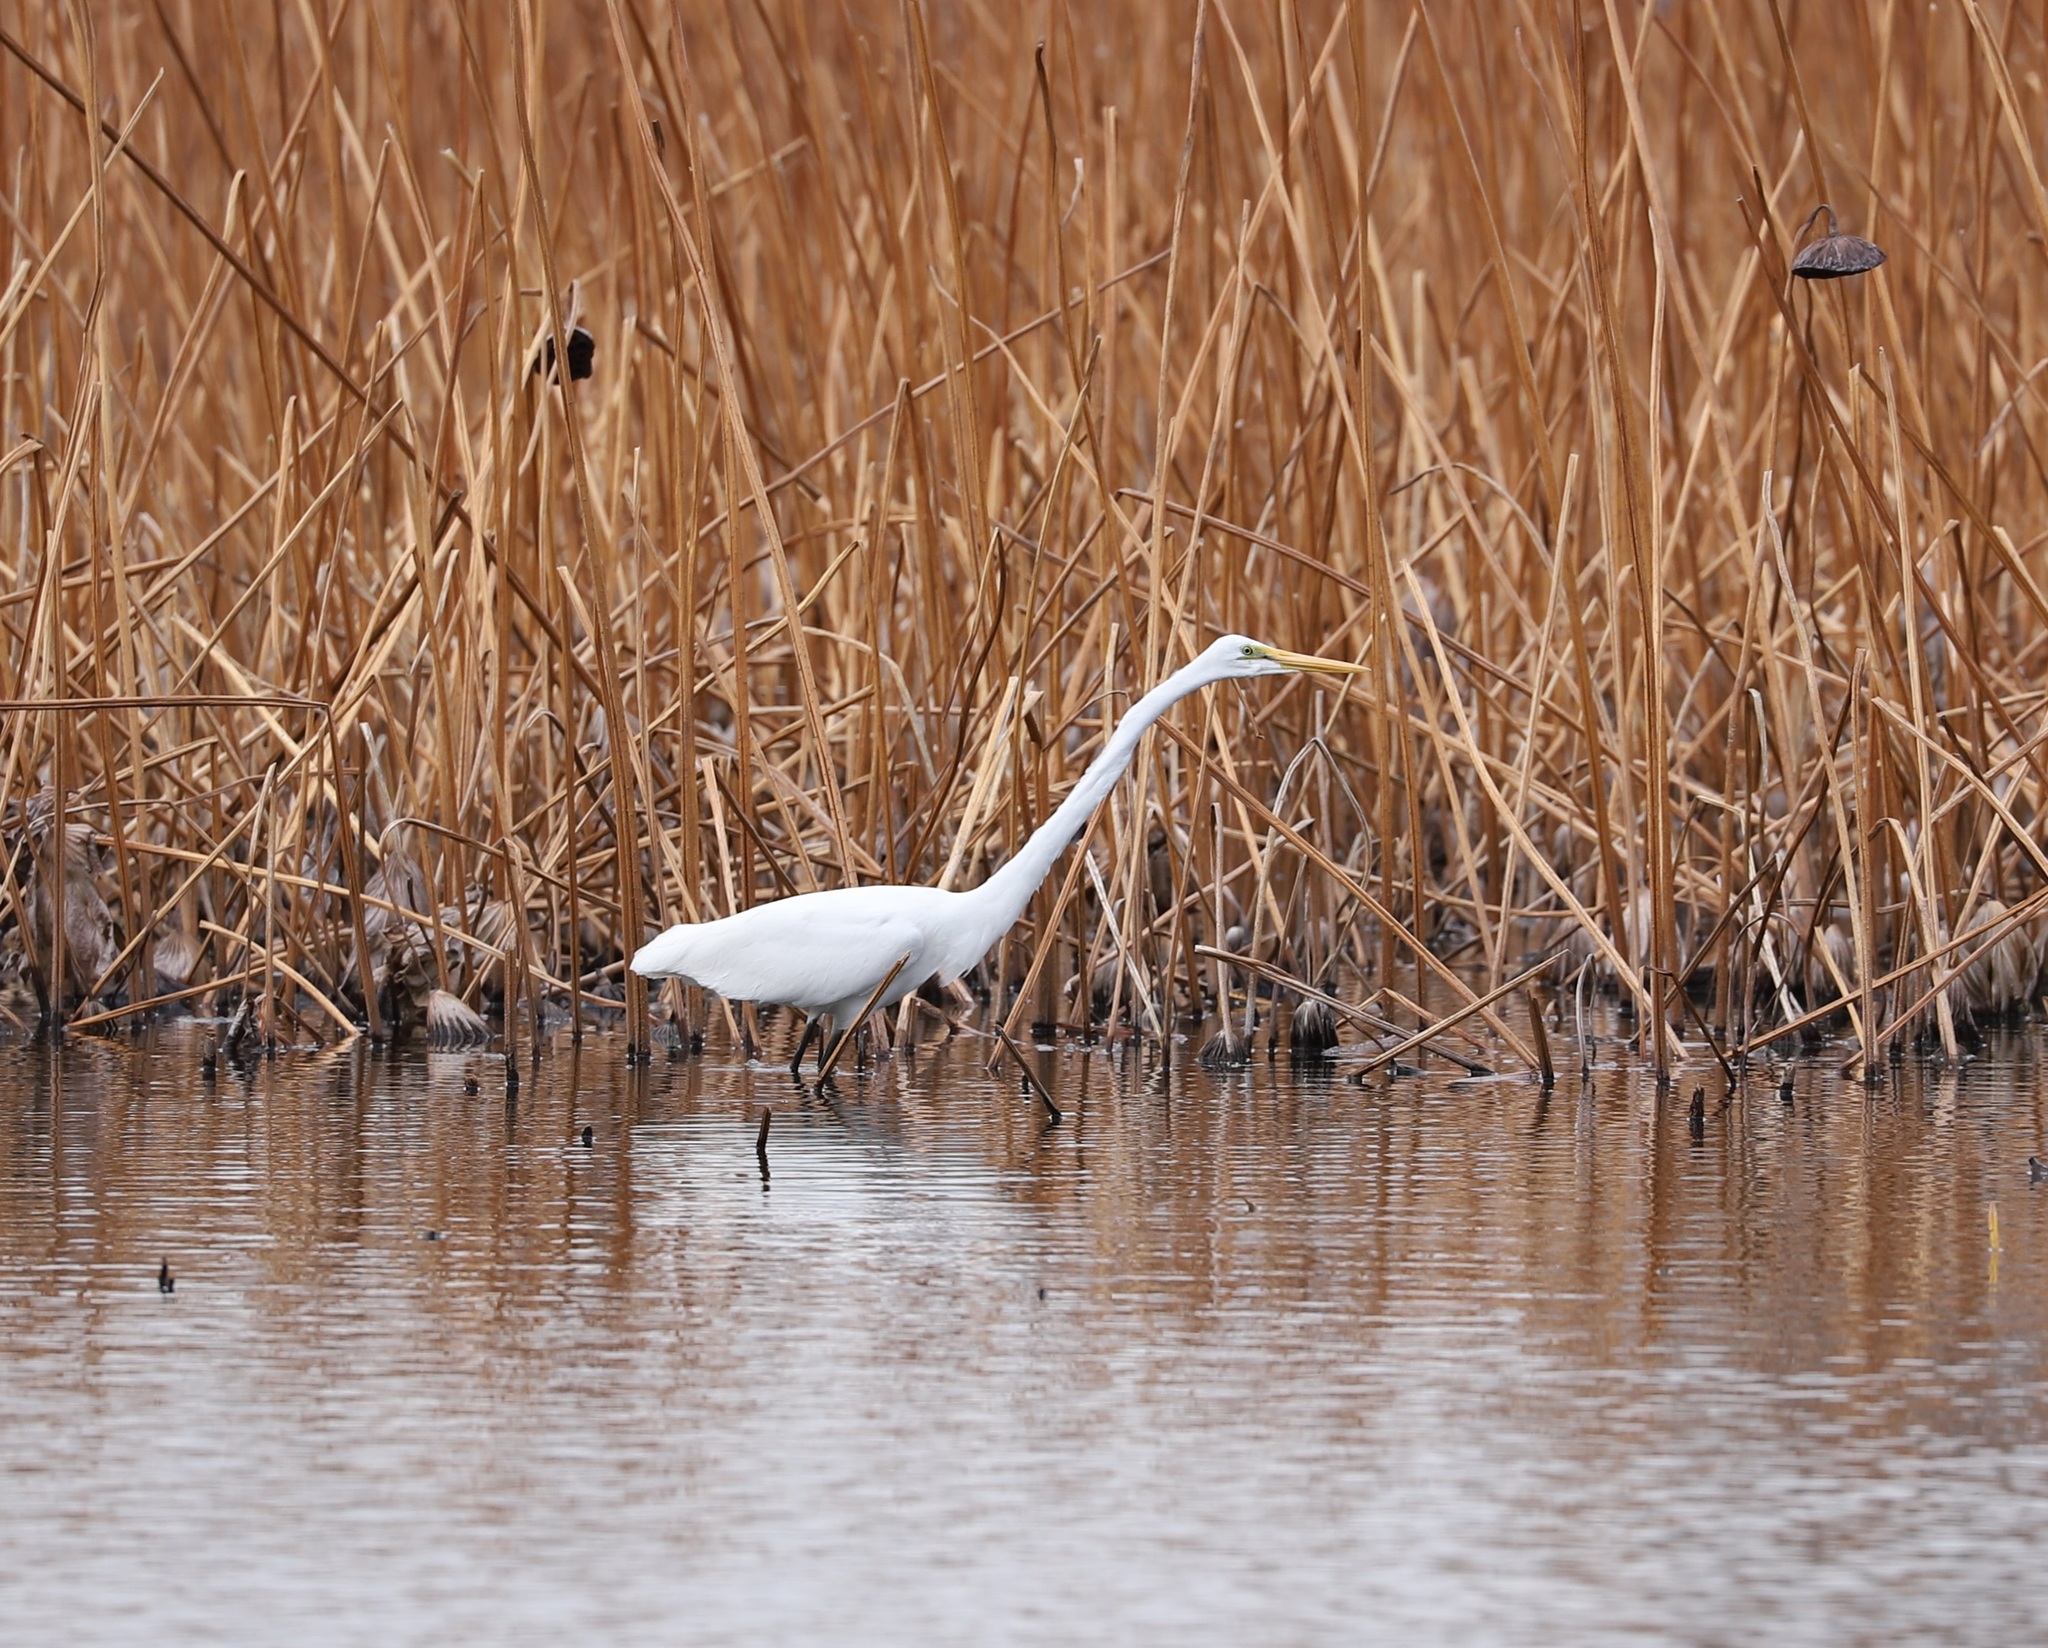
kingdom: Animalia
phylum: Chordata
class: Aves
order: Pelecaniformes
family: Ardeidae
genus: Ardea
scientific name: Ardea alba
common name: Great egret
